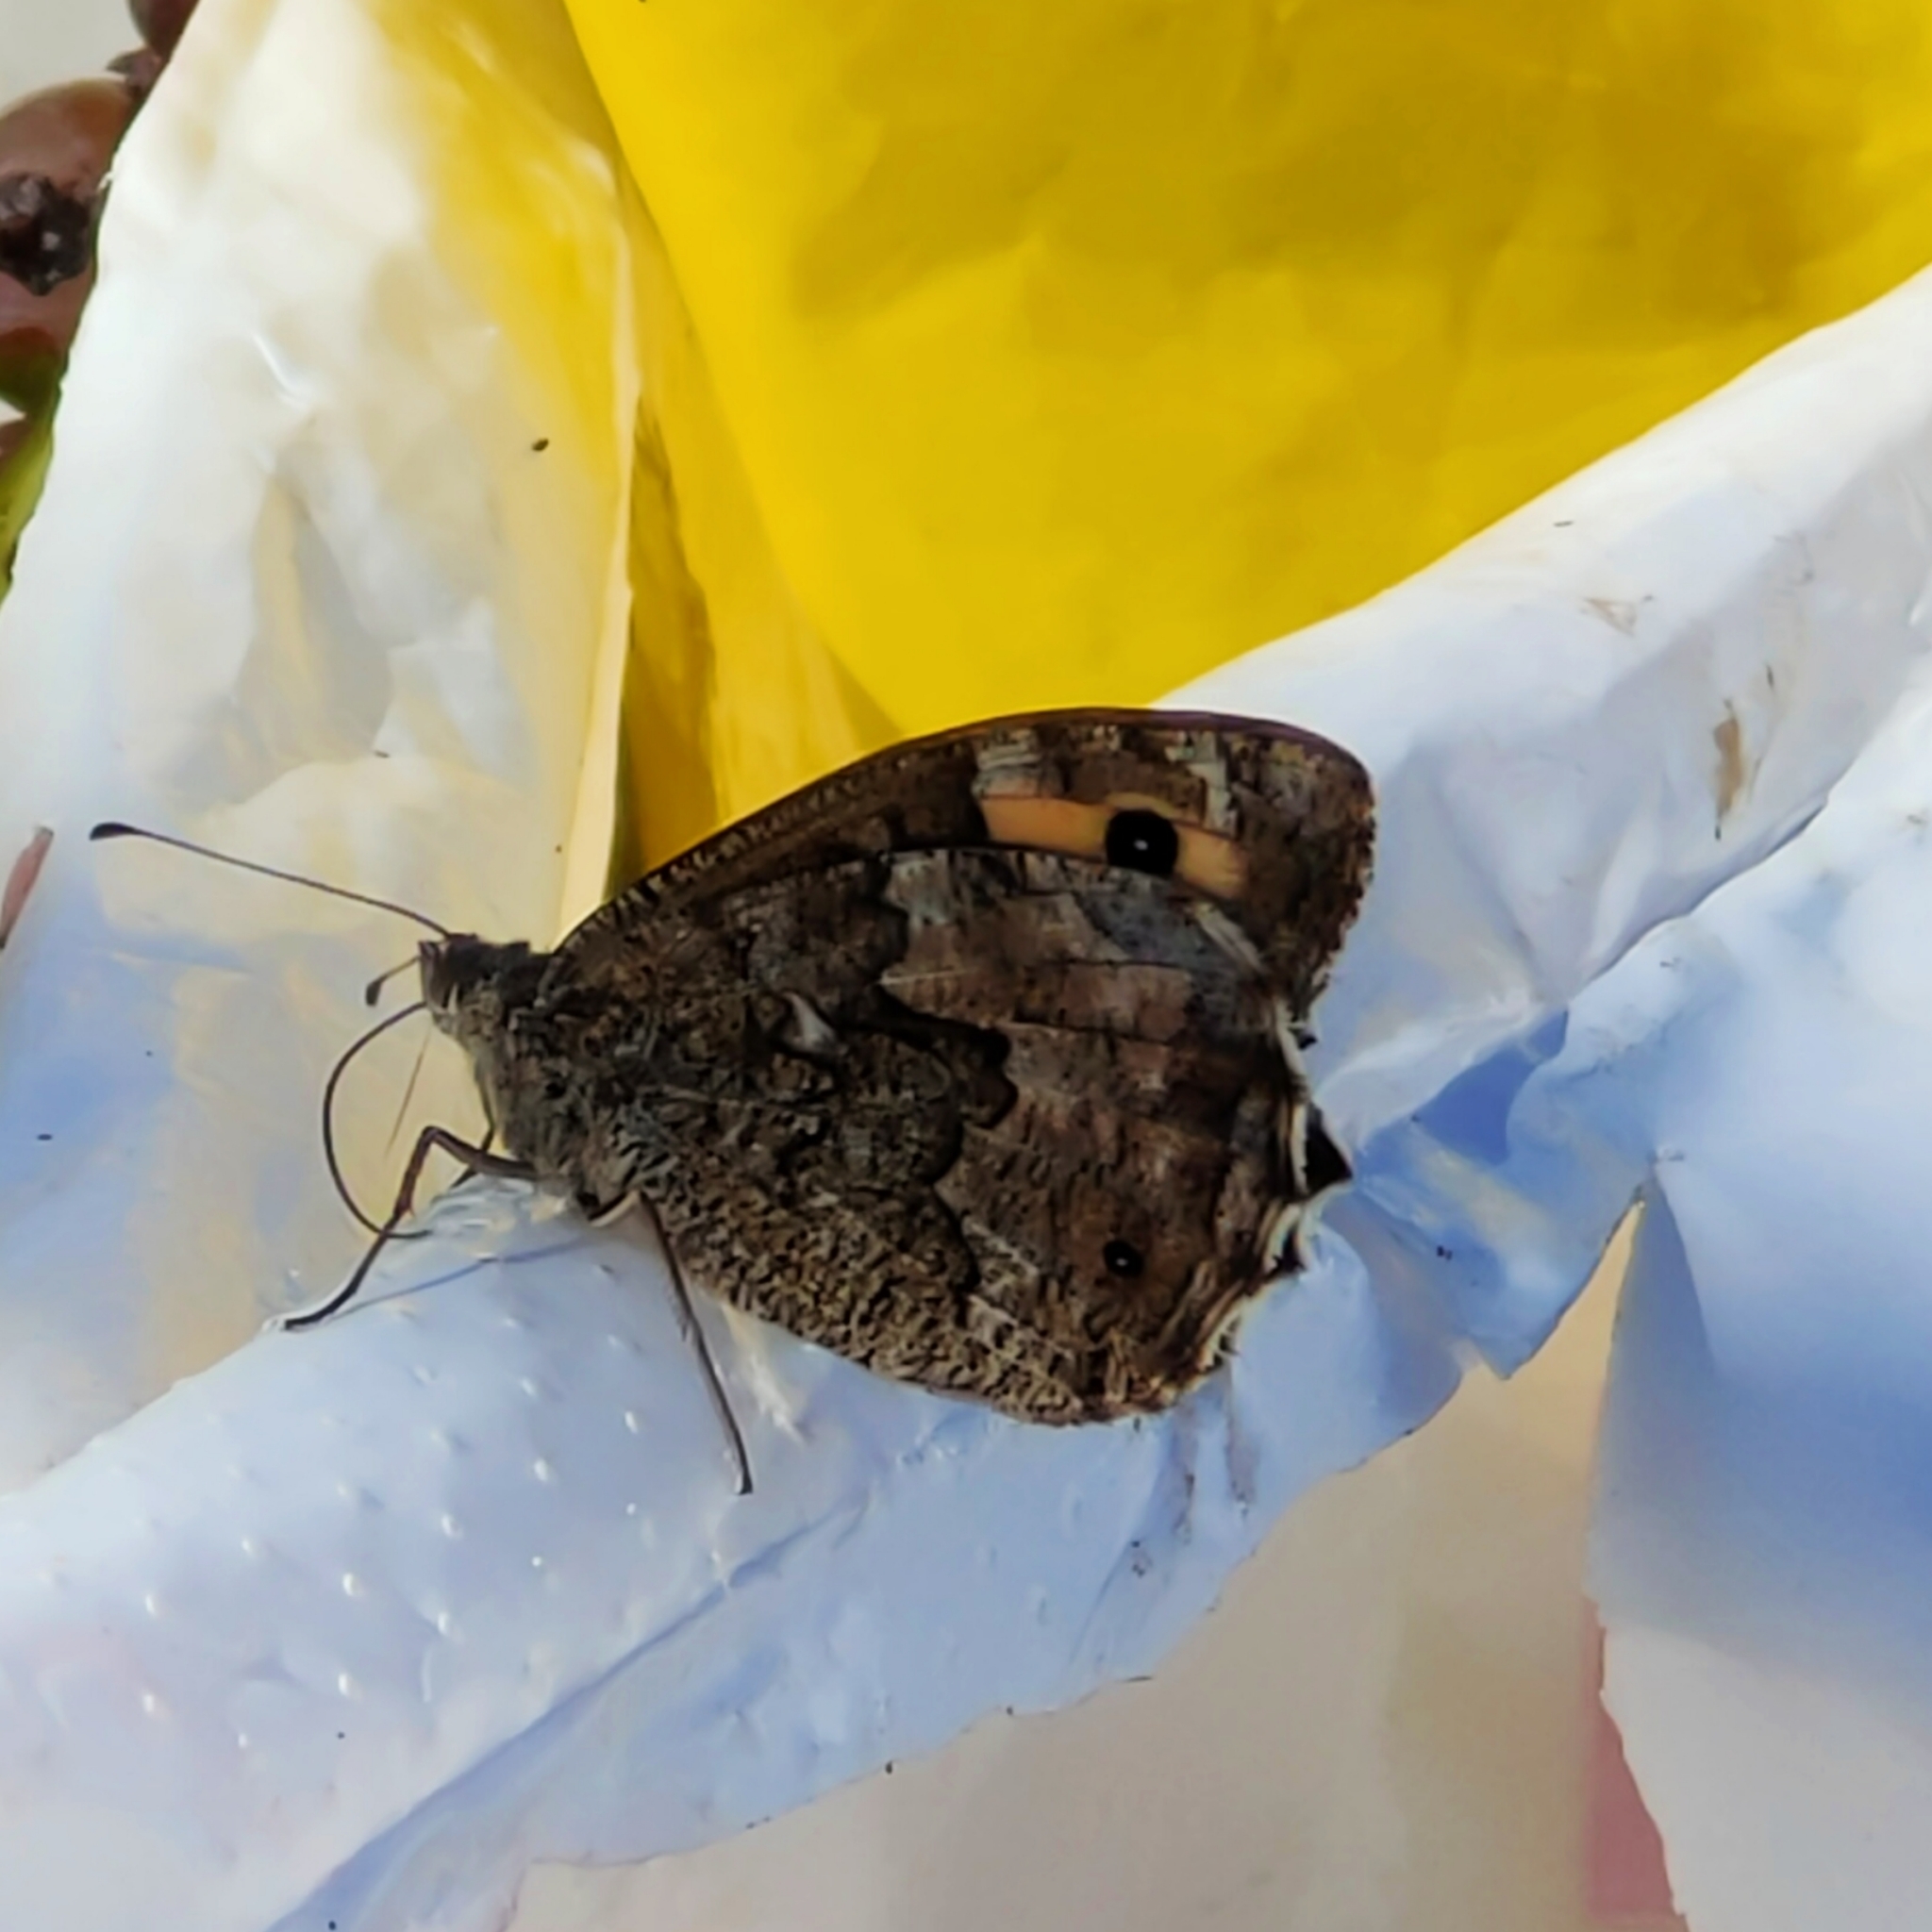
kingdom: Animalia
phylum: Arthropoda
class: Insecta
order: Lepidoptera
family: Nymphalidae
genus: Hipparchia
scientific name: Hipparchia cretica
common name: Cretan grayling
